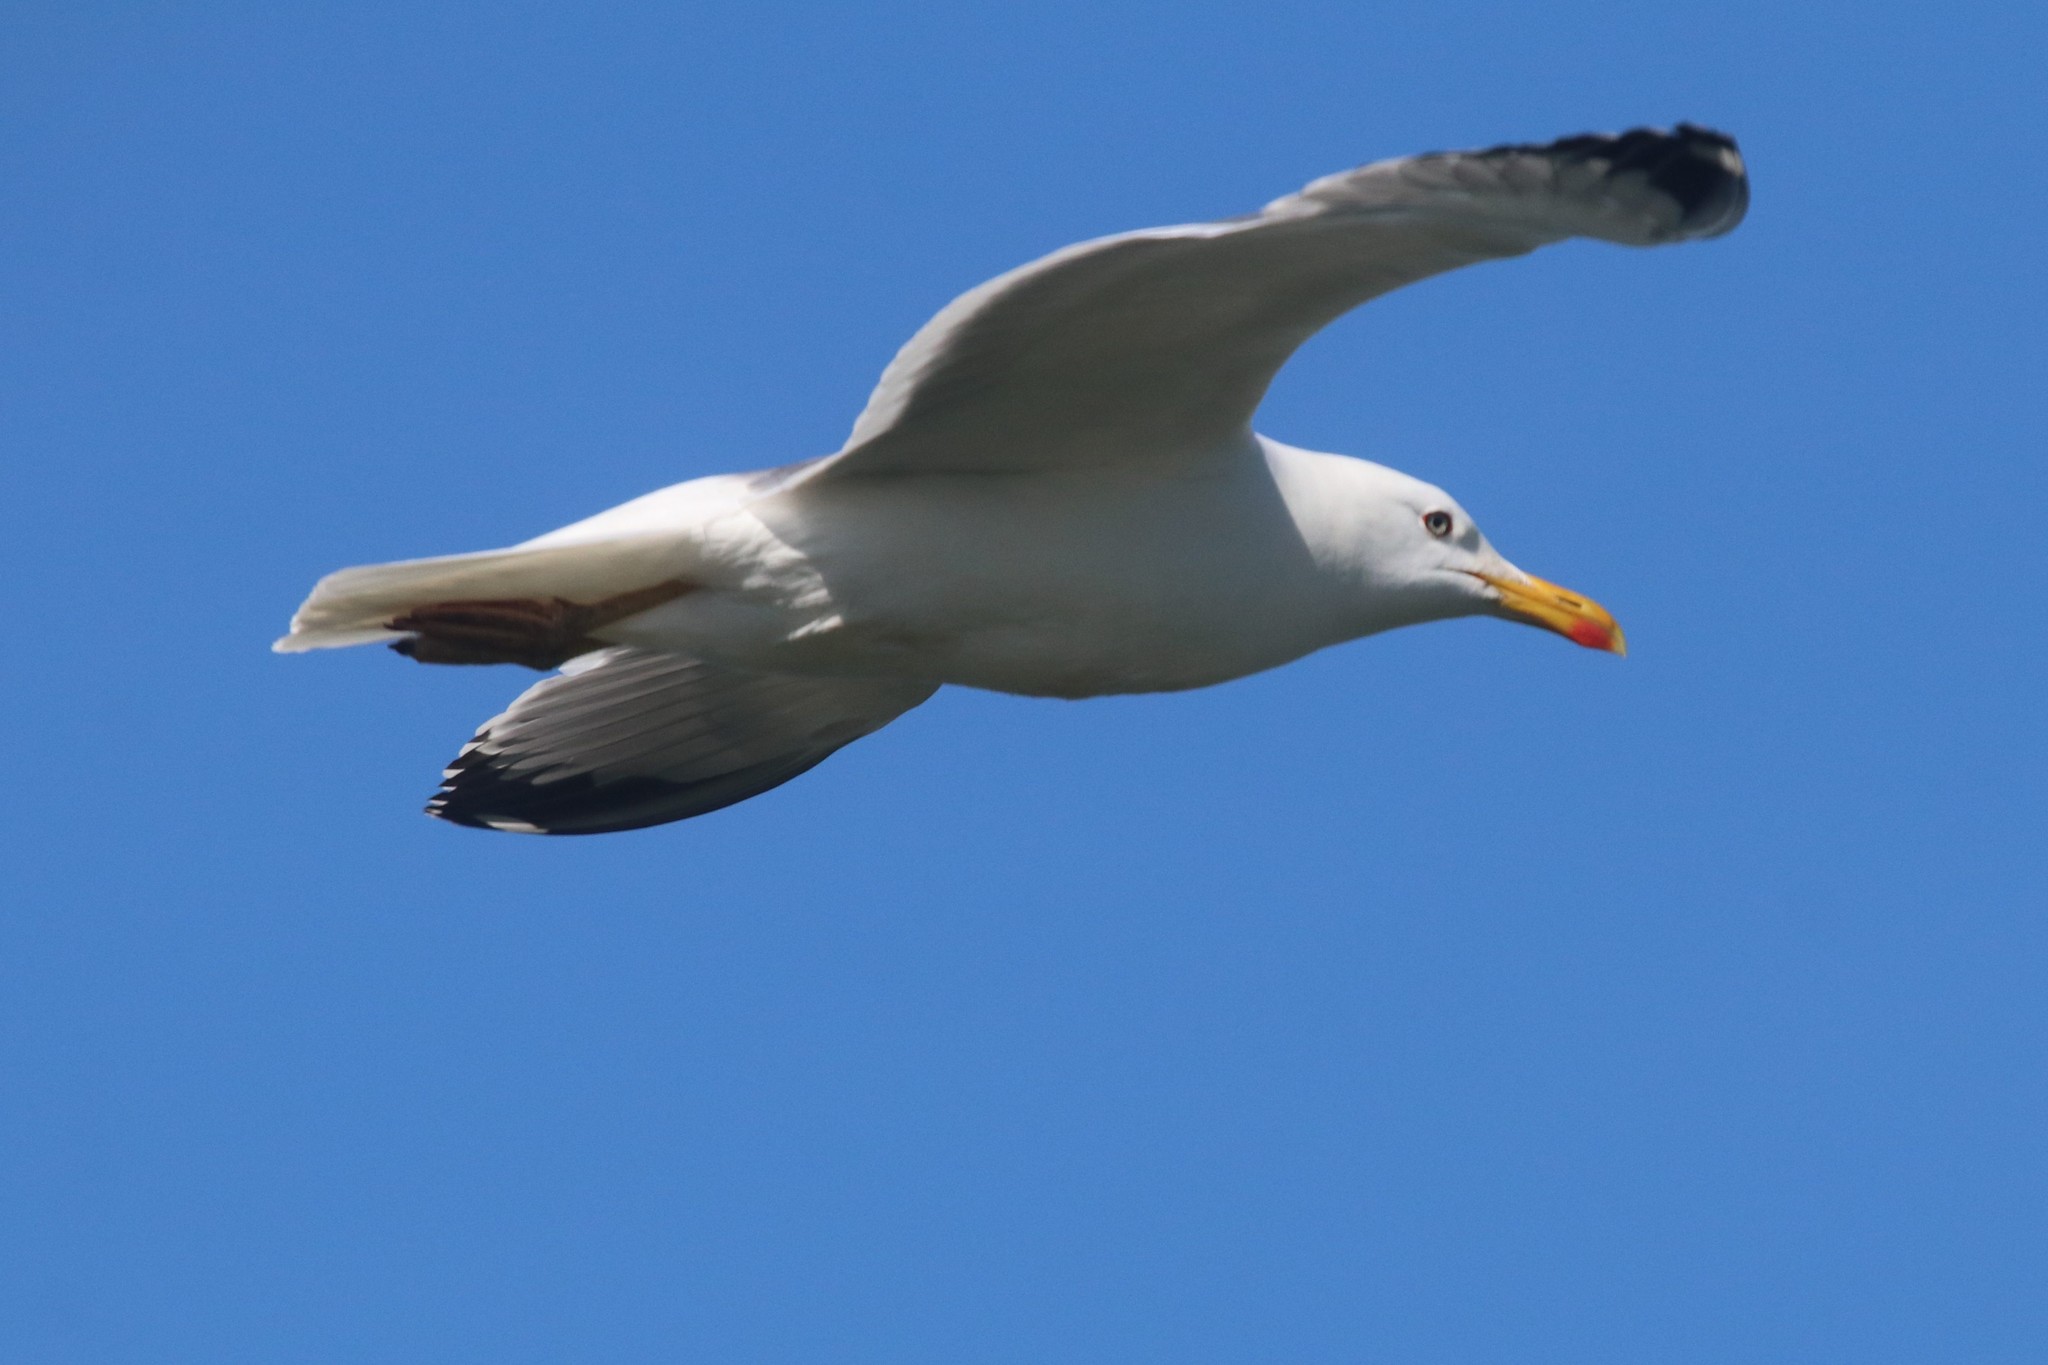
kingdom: Animalia
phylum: Chordata
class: Aves
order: Charadriiformes
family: Laridae
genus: Larus
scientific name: Larus cachinnans
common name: Caspian gull
